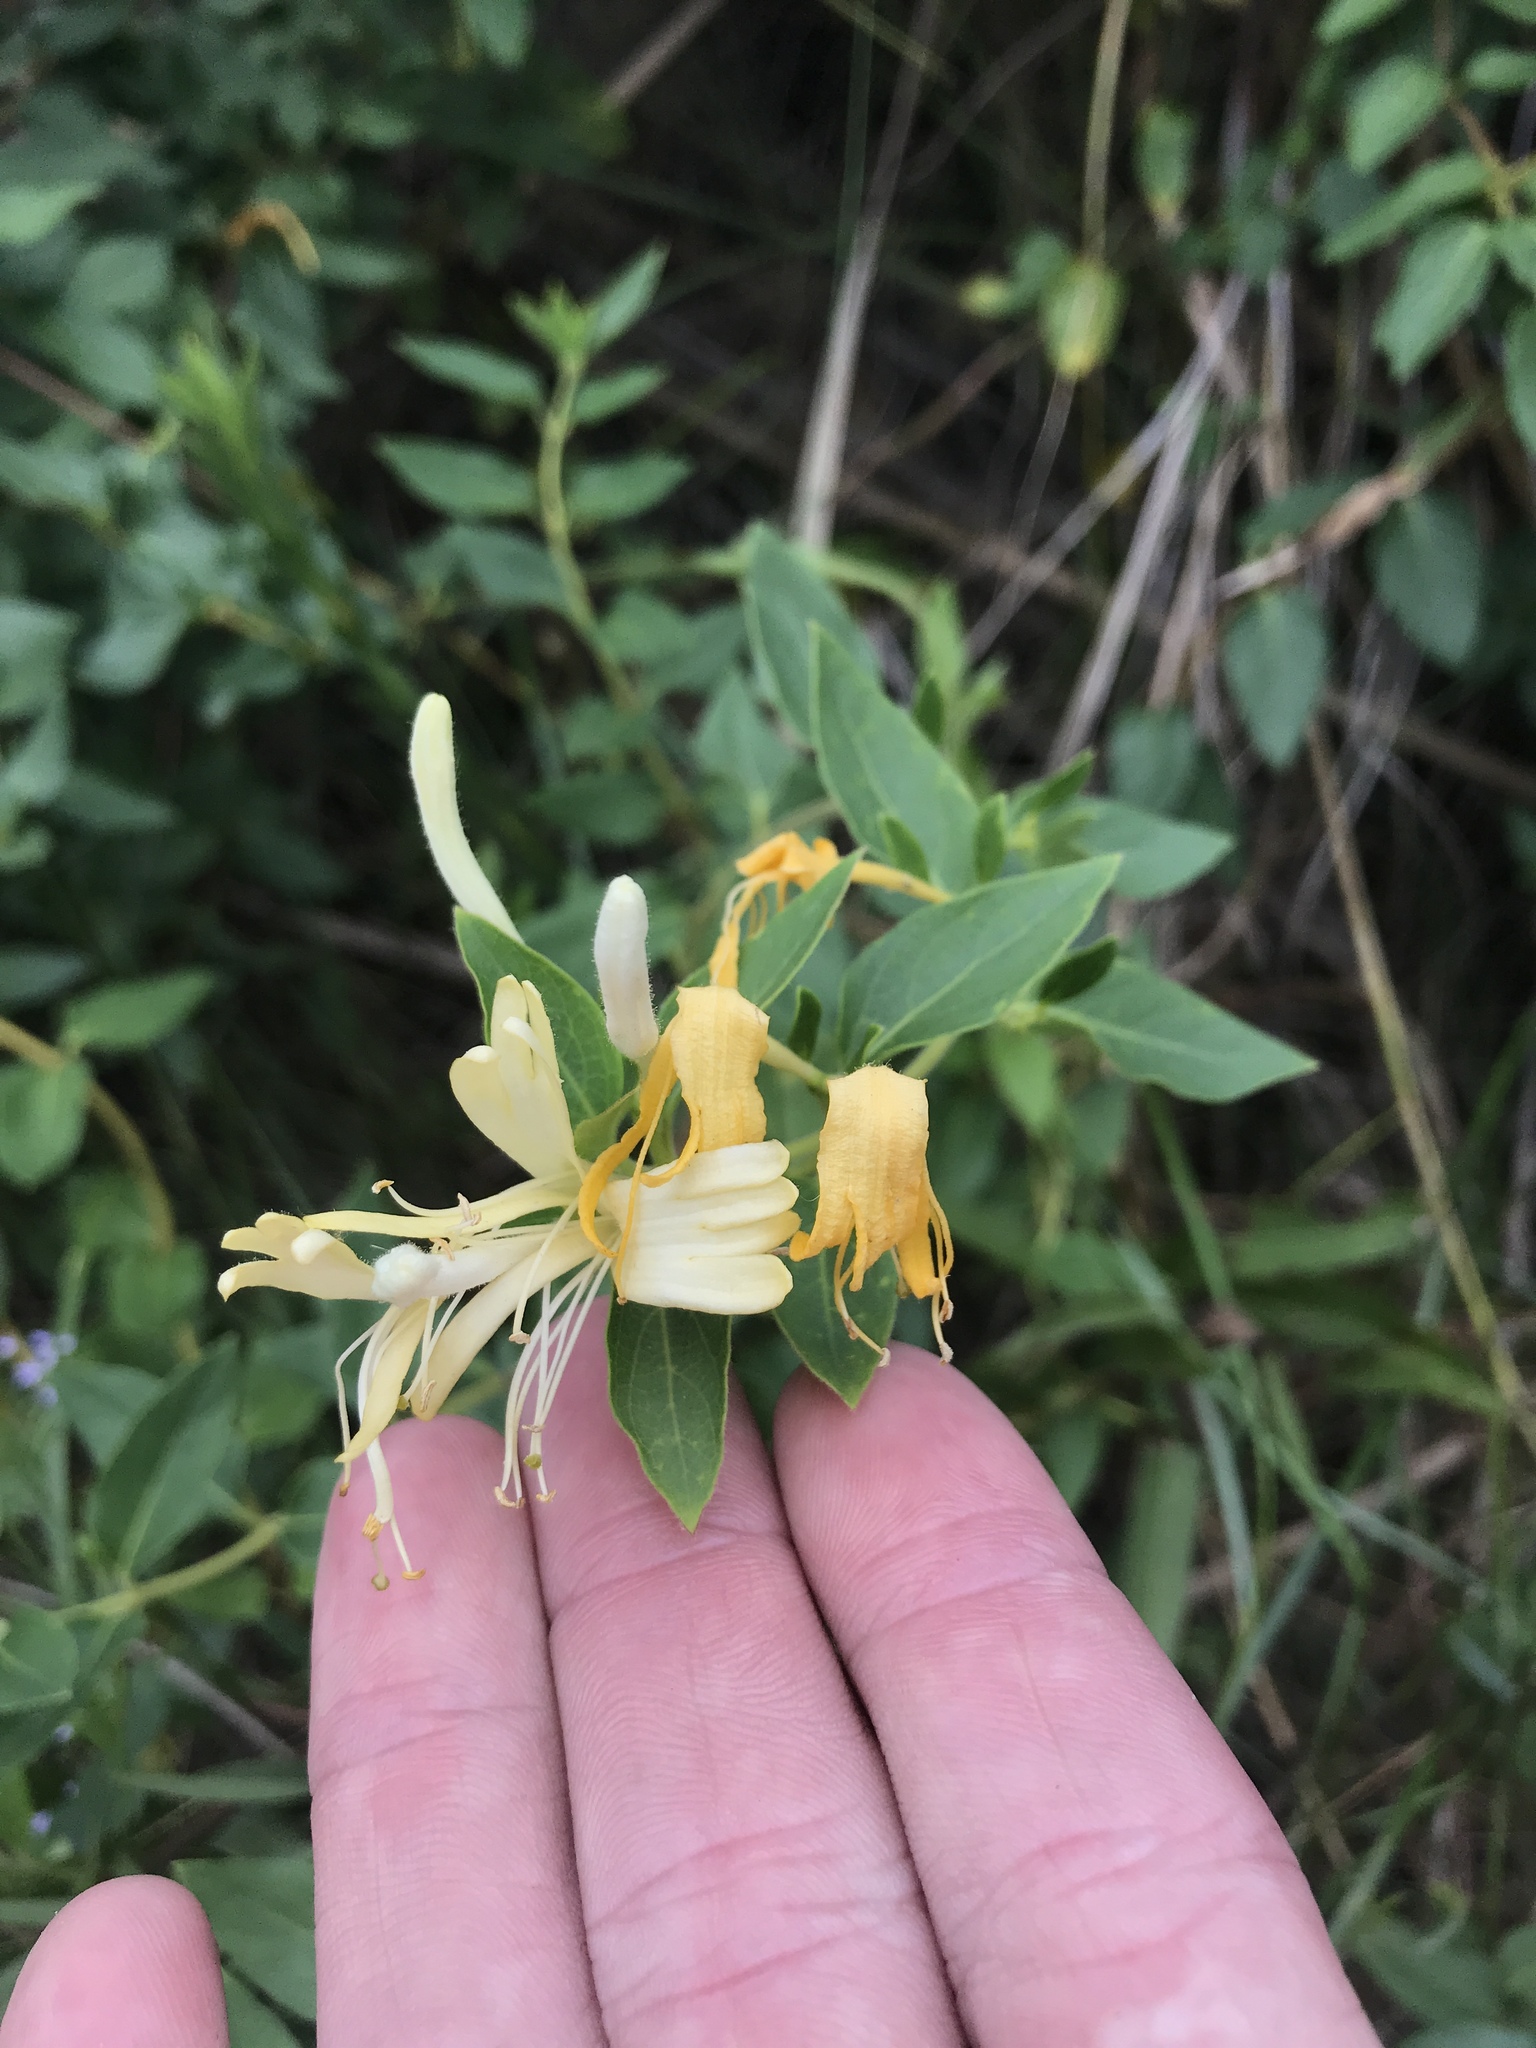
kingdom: Plantae
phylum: Tracheophyta
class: Magnoliopsida
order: Dipsacales
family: Caprifoliaceae
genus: Lonicera
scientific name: Lonicera japonica
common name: Japanese honeysuckle
